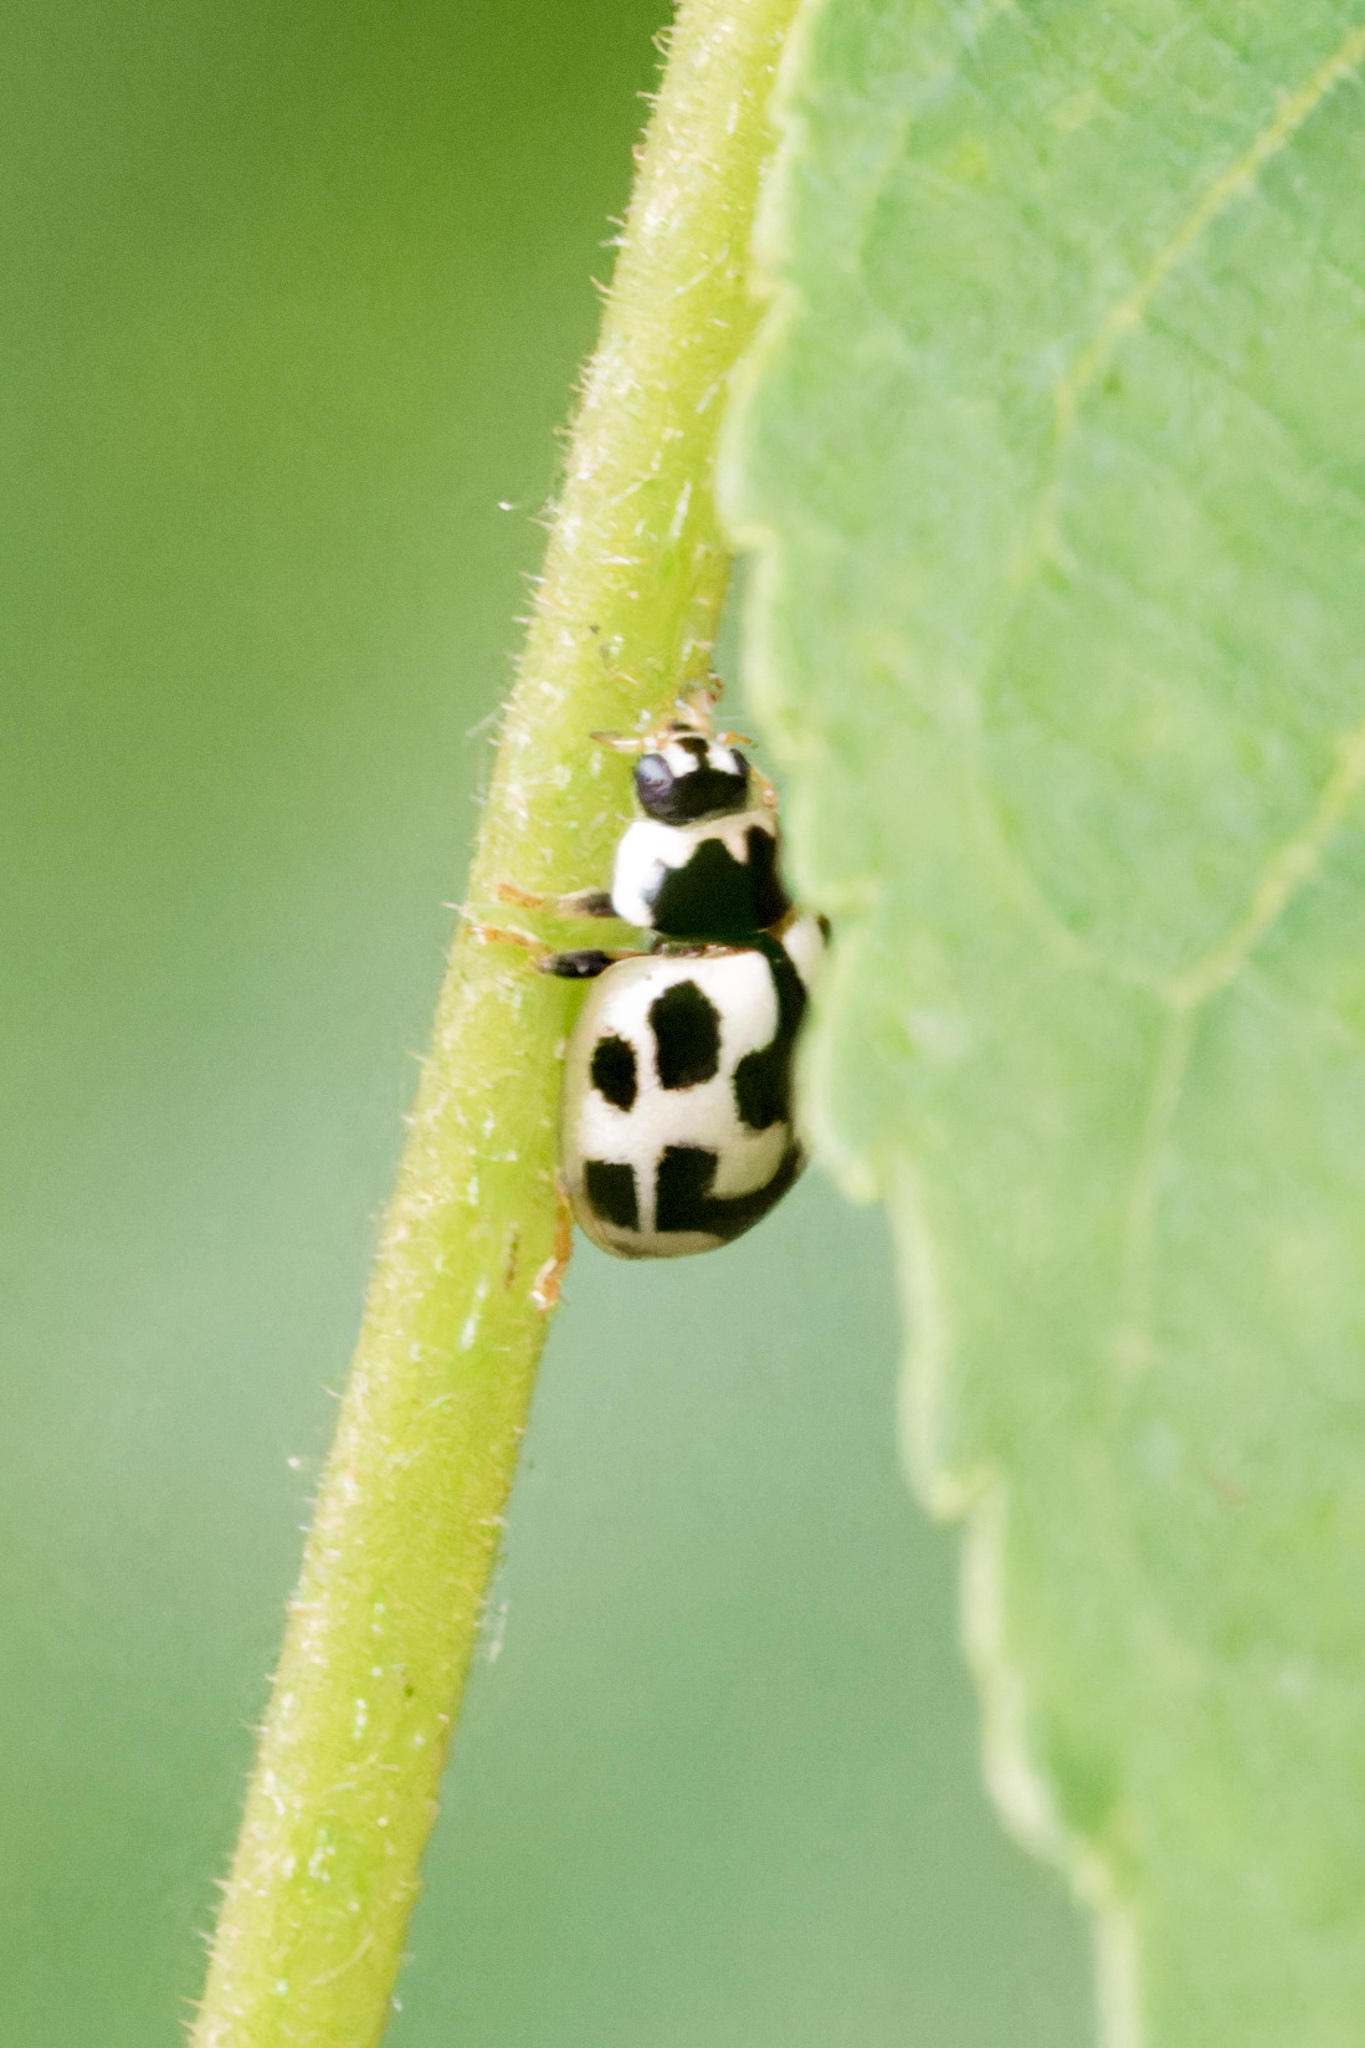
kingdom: Animalia
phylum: Arthropoda
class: Insecta
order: Coleoptera
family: Coccinellidae
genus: Propylaea
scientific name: Propylaea quatuordecimpunctata
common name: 14-spotted ladybird beetle
